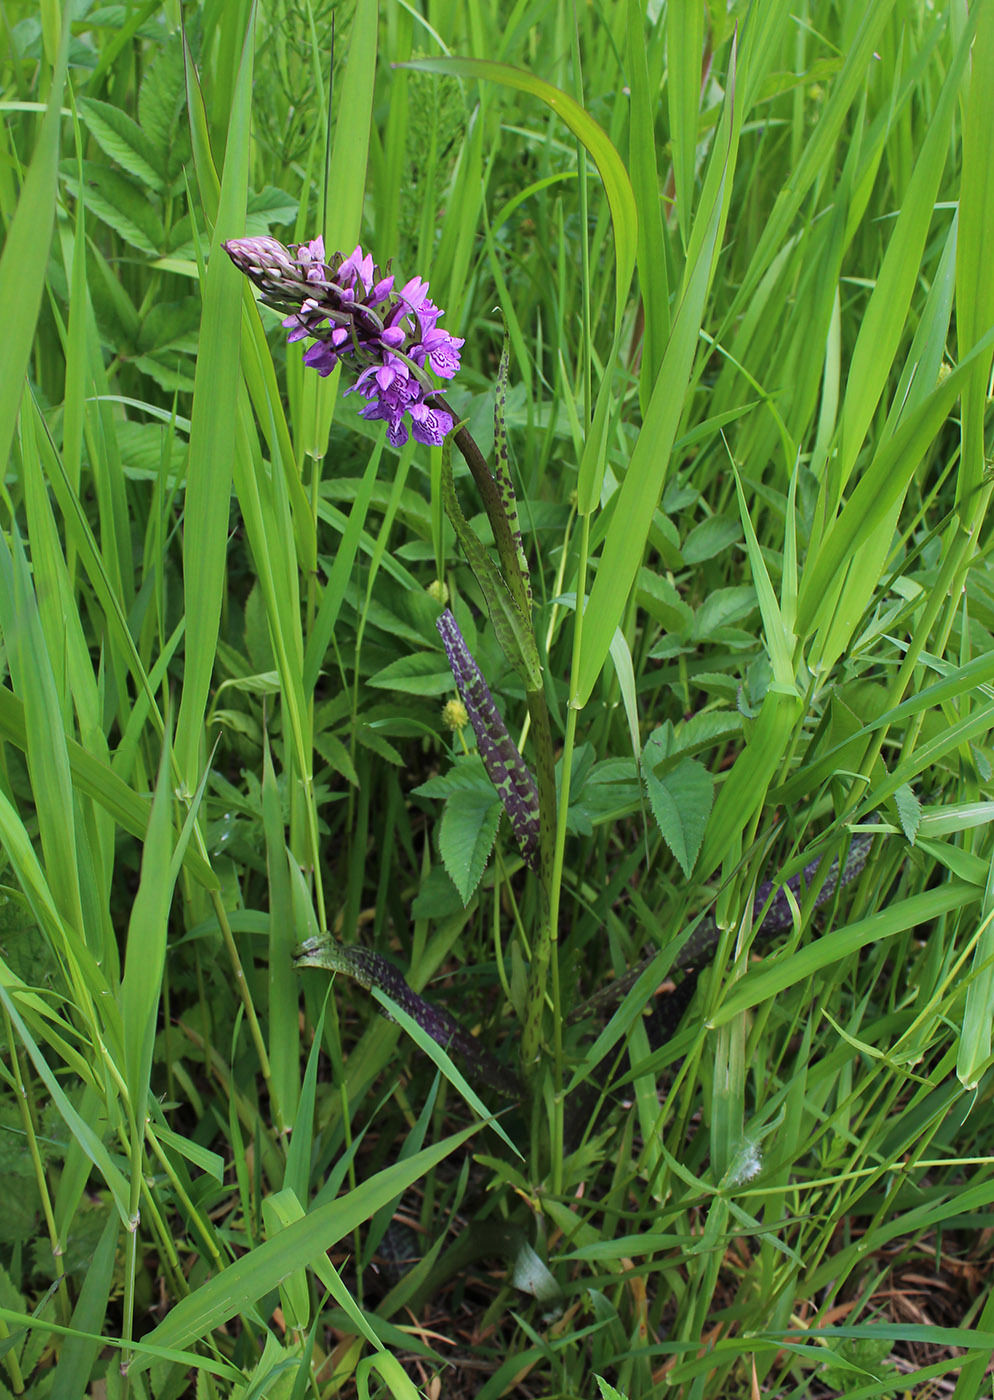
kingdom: Plantae
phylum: Tracheophyta
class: Liliopsida
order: Asparagales
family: Orchidaceae
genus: Dactylorhiza
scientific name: Dactylorhiza majalis
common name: Marsh orchid
